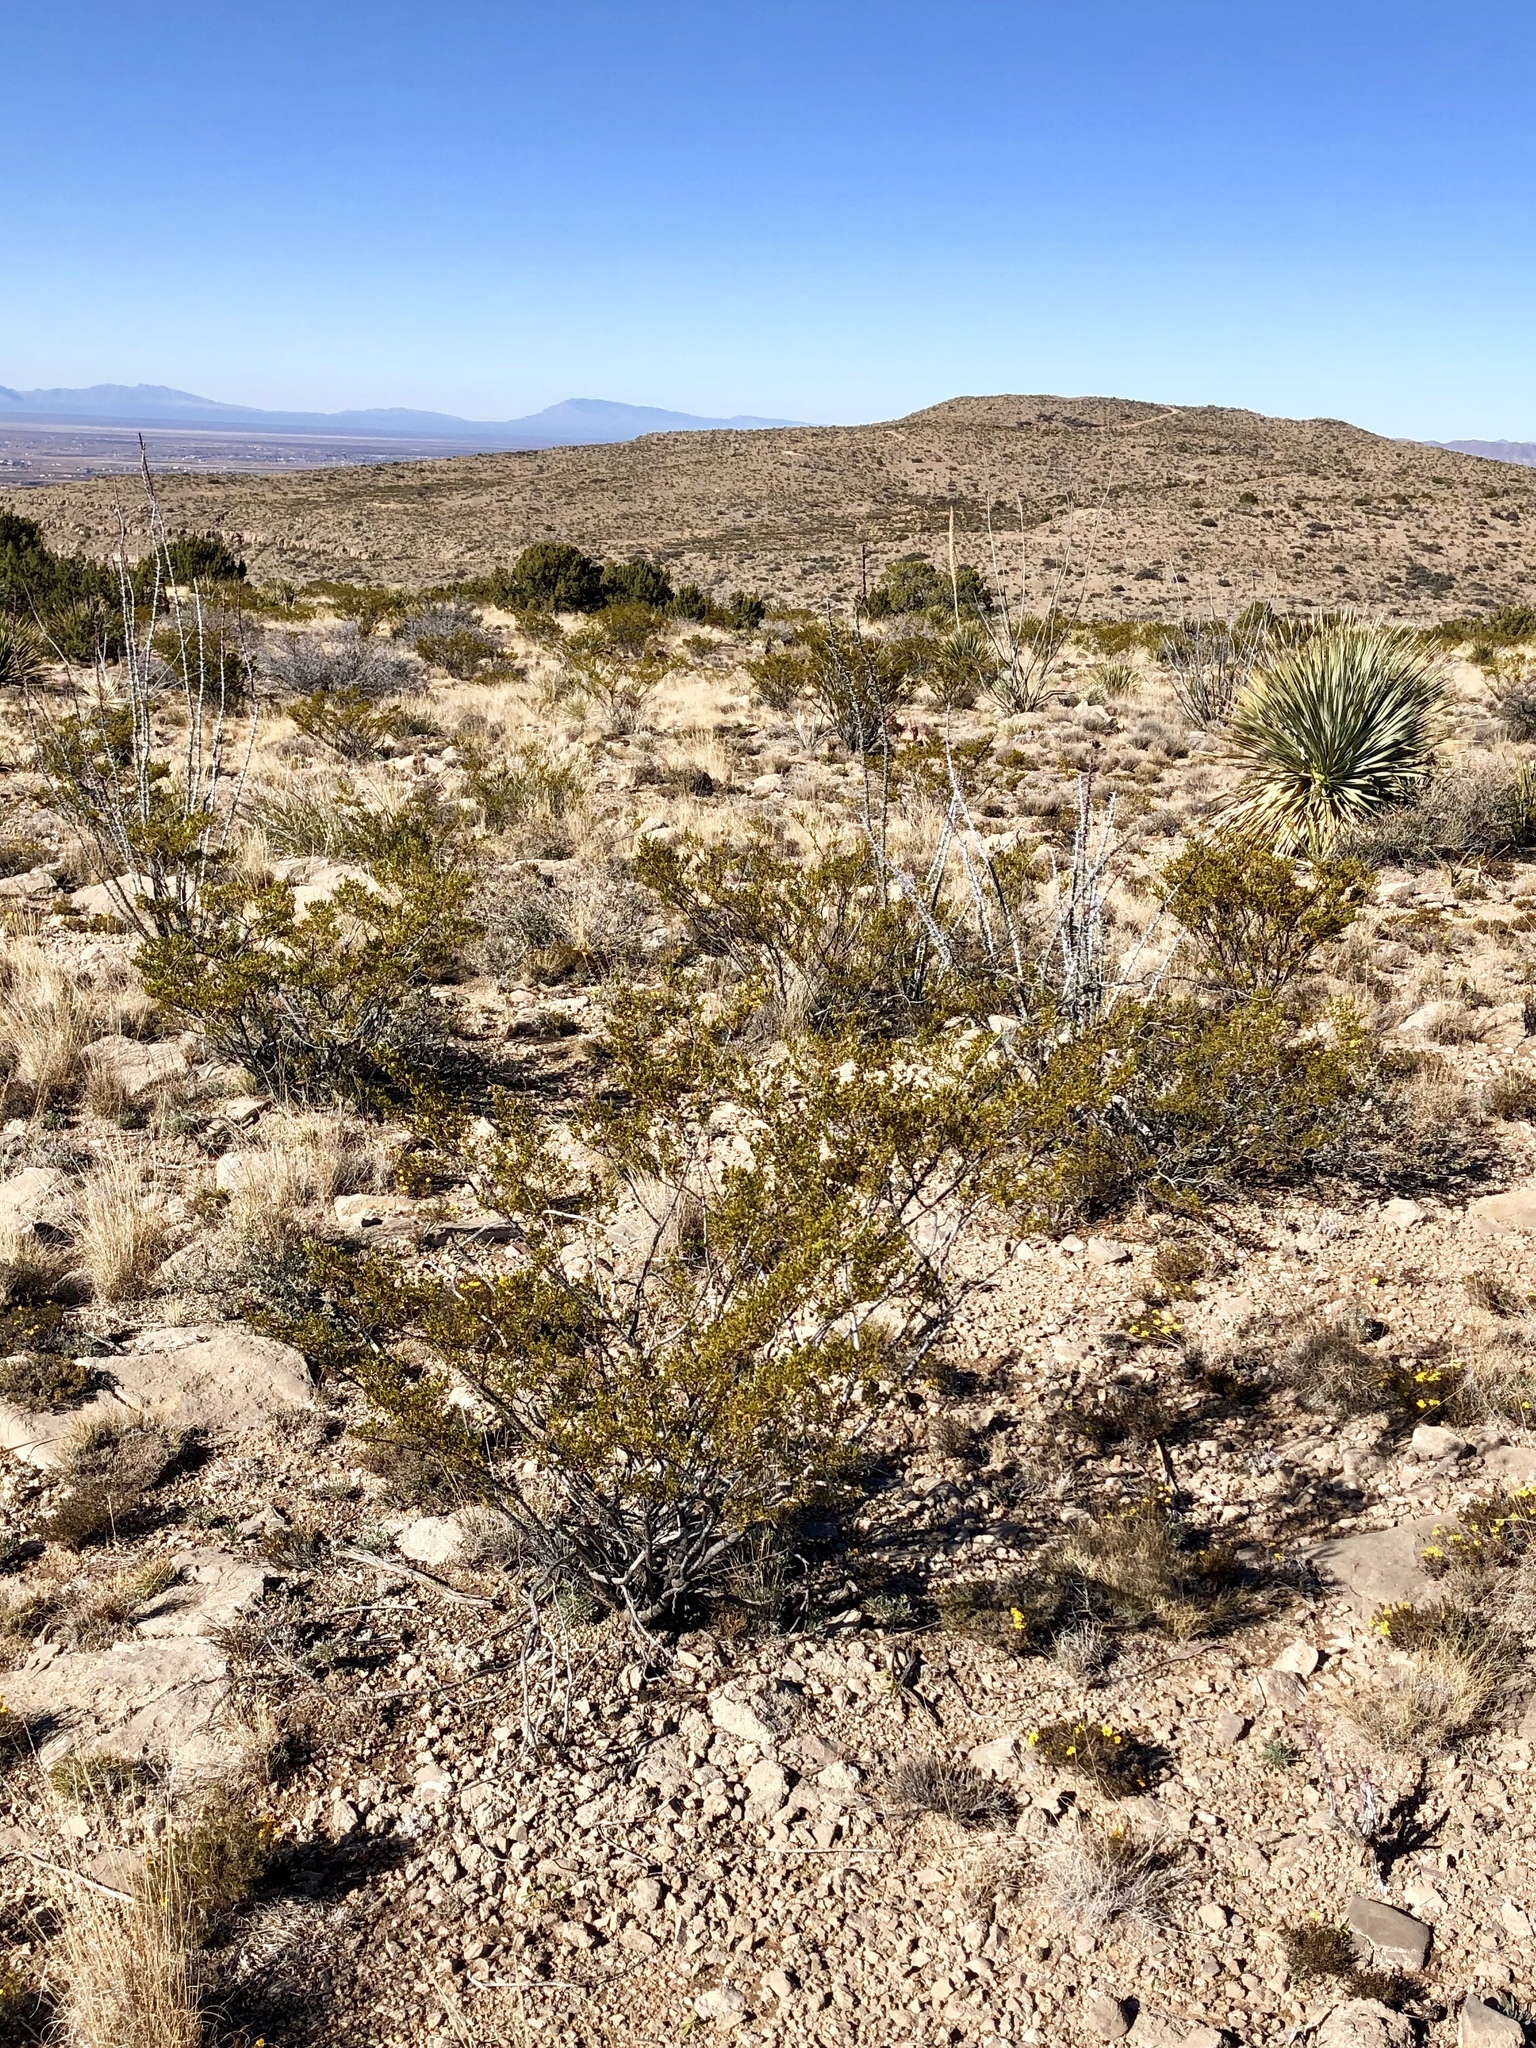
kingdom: Plantae
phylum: Tracheophyta
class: Magnoliopsida
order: Zygophyllales
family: Zygophyllaceae
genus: Larrea
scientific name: Larrea tridentata
